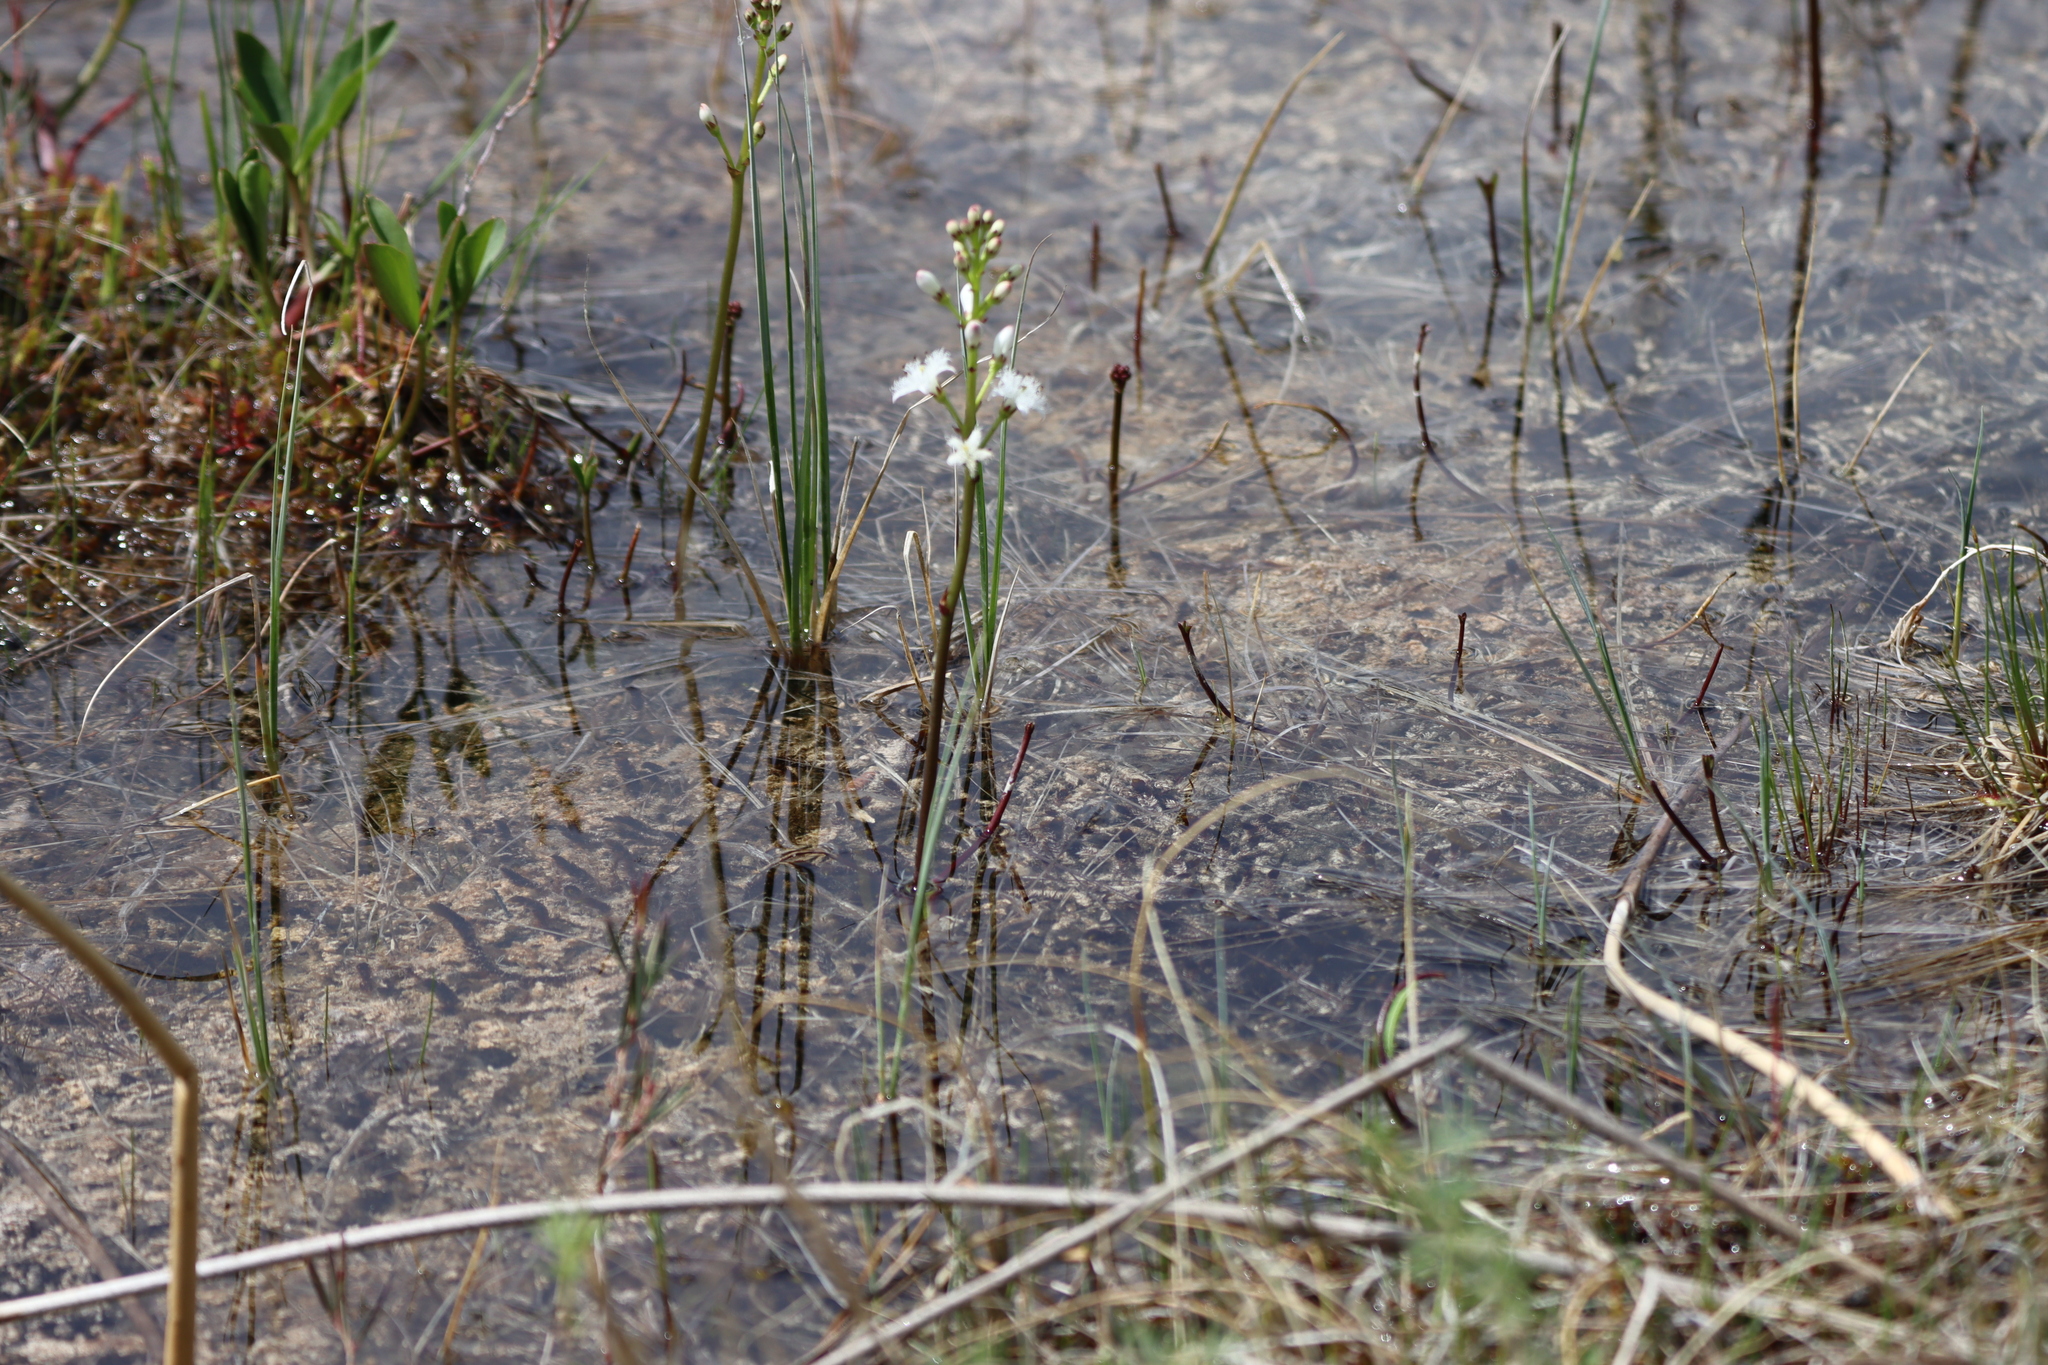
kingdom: Plantae
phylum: Tracheophyta
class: Magnoliopsida
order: Asterales
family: Menyanthaceae
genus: Menyanthes
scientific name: Menyanthes trifoliata
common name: Bogbean
